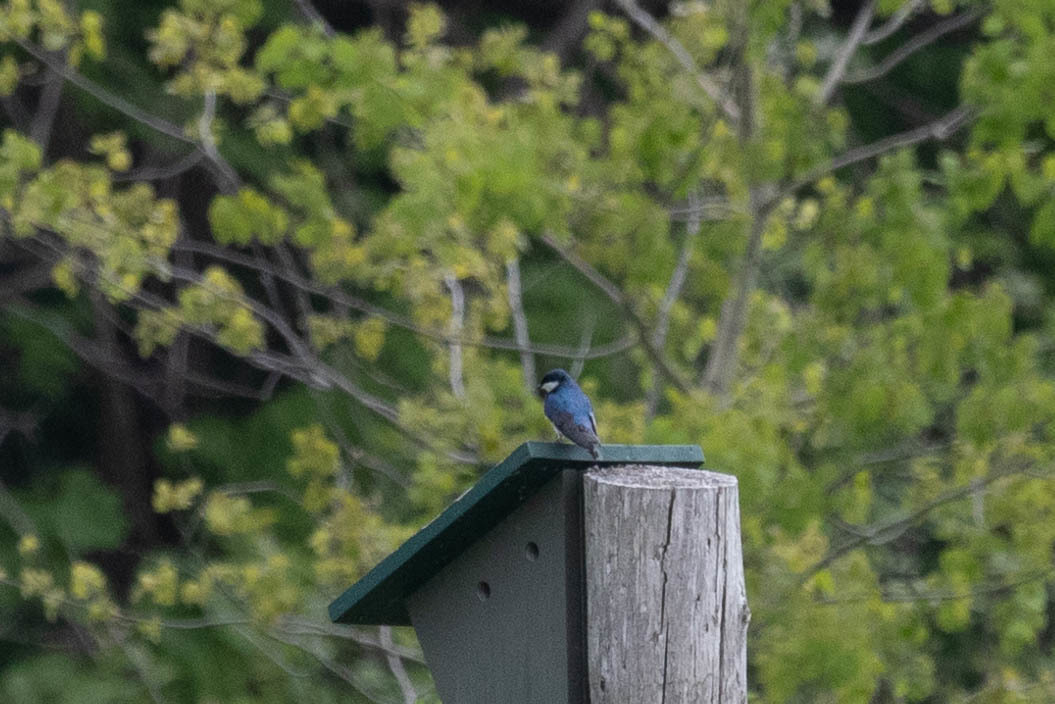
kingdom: Animalia
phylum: Chordata
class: Aves
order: Passeriformes
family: Hirundinidae
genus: Tachycineta
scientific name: Tachycineta bicolor
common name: Tree swallow
